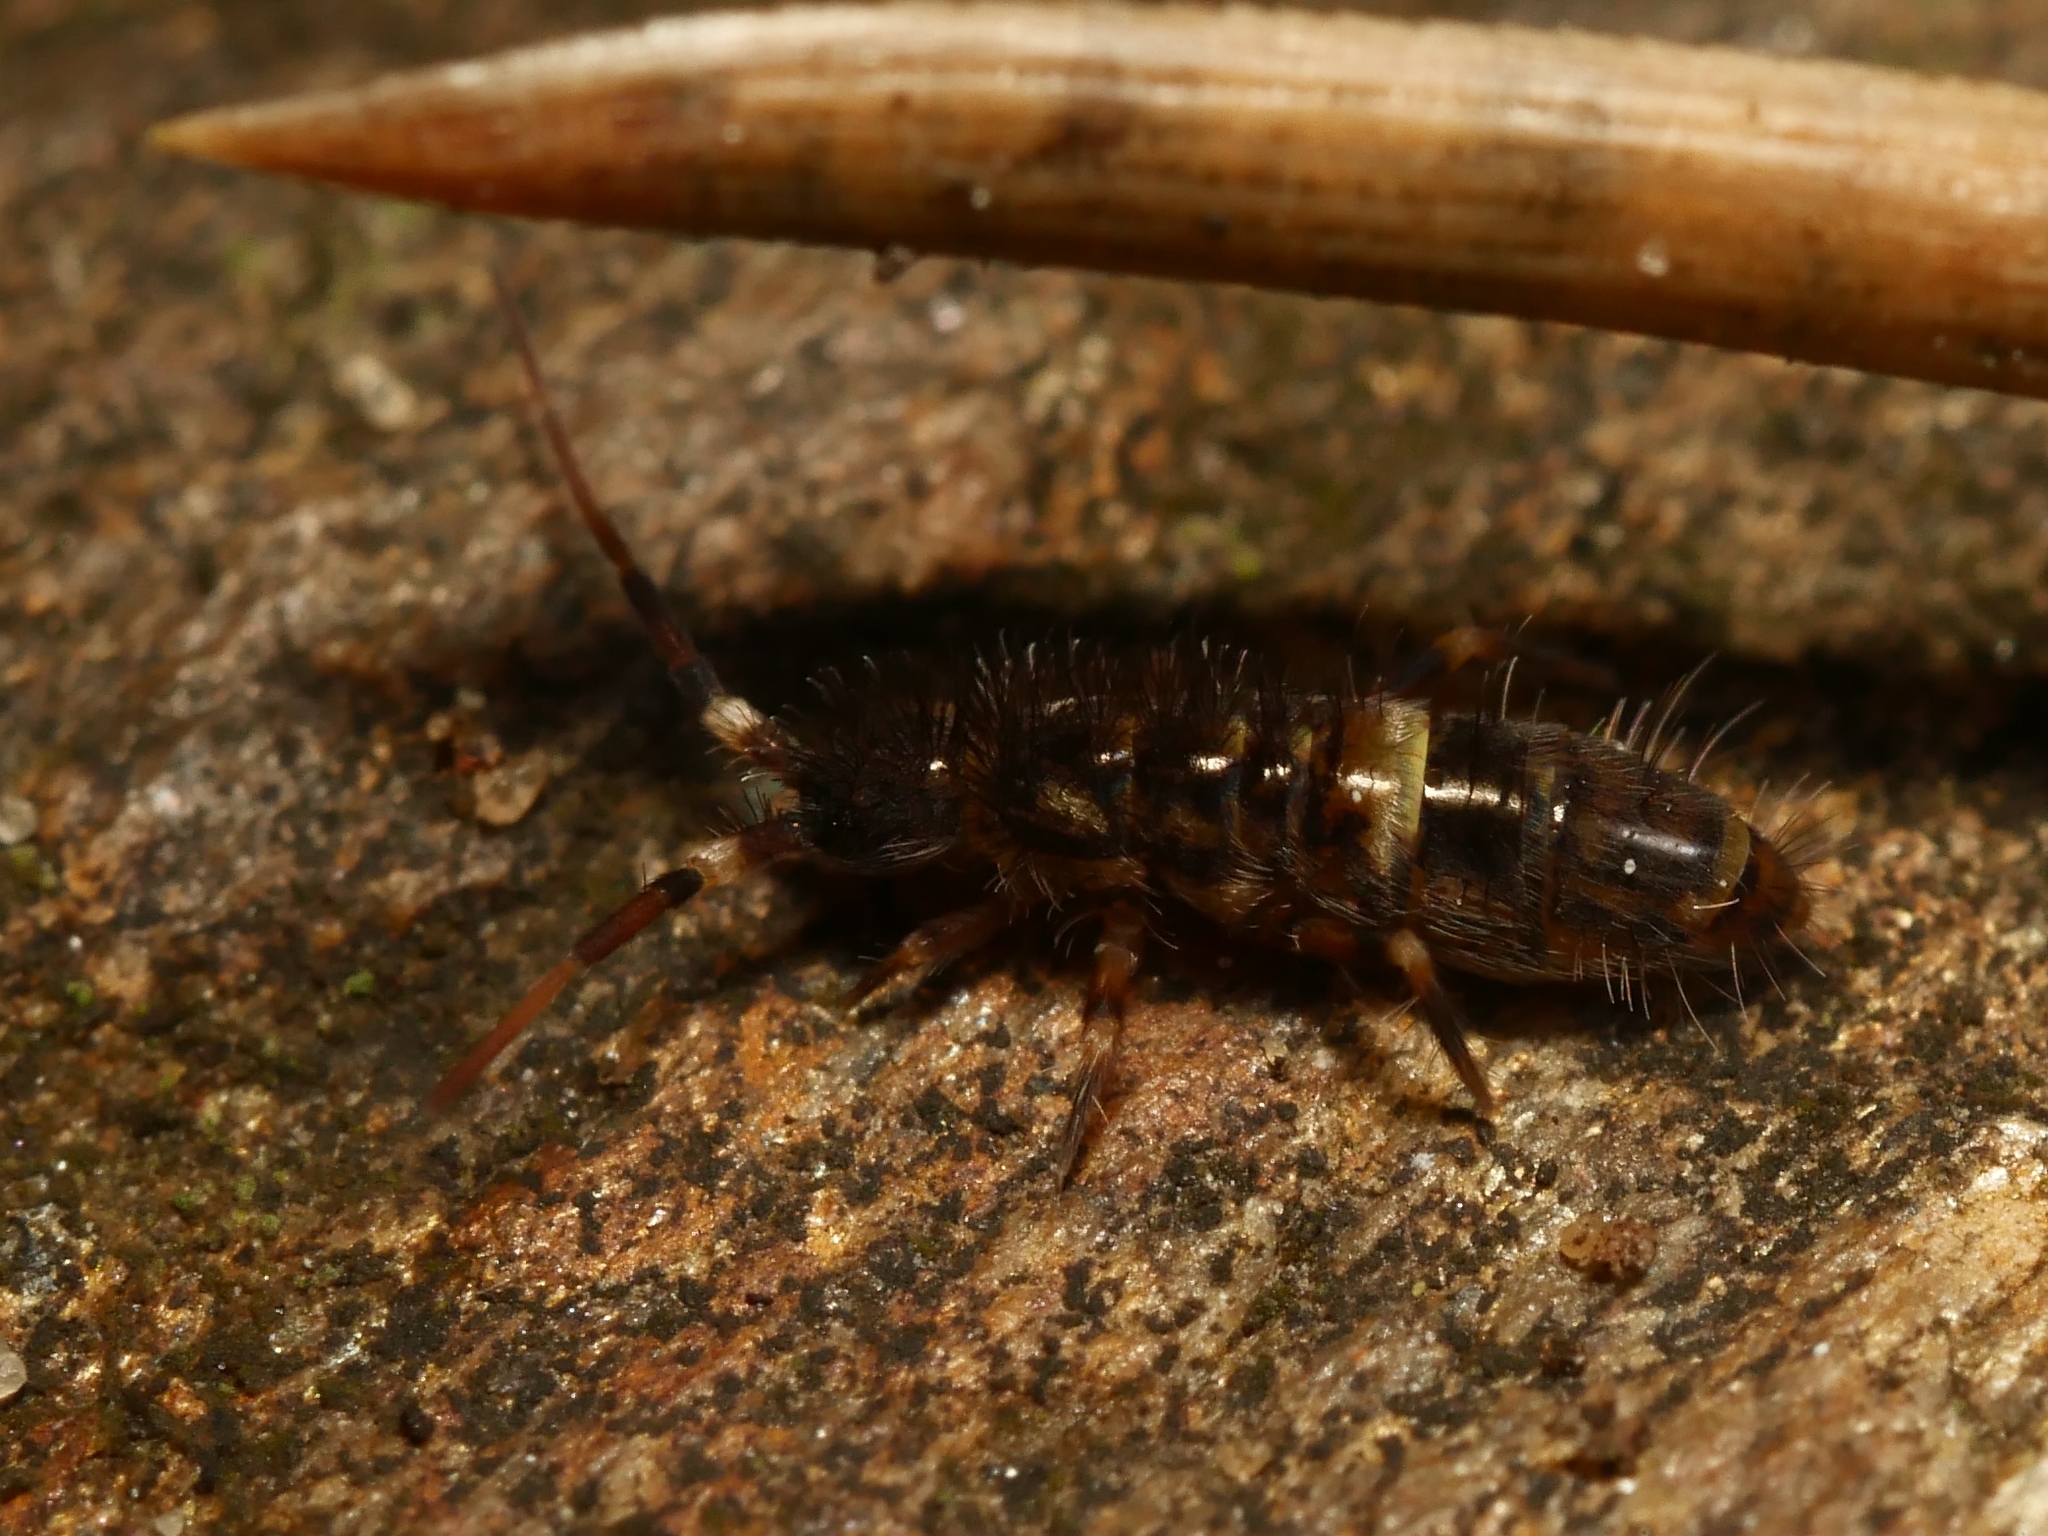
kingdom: Animalia
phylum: Arthropoda
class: Collembola
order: Entomobryomorpha
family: Orchesellidae
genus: Orchesella
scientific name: Orchesella cincta
